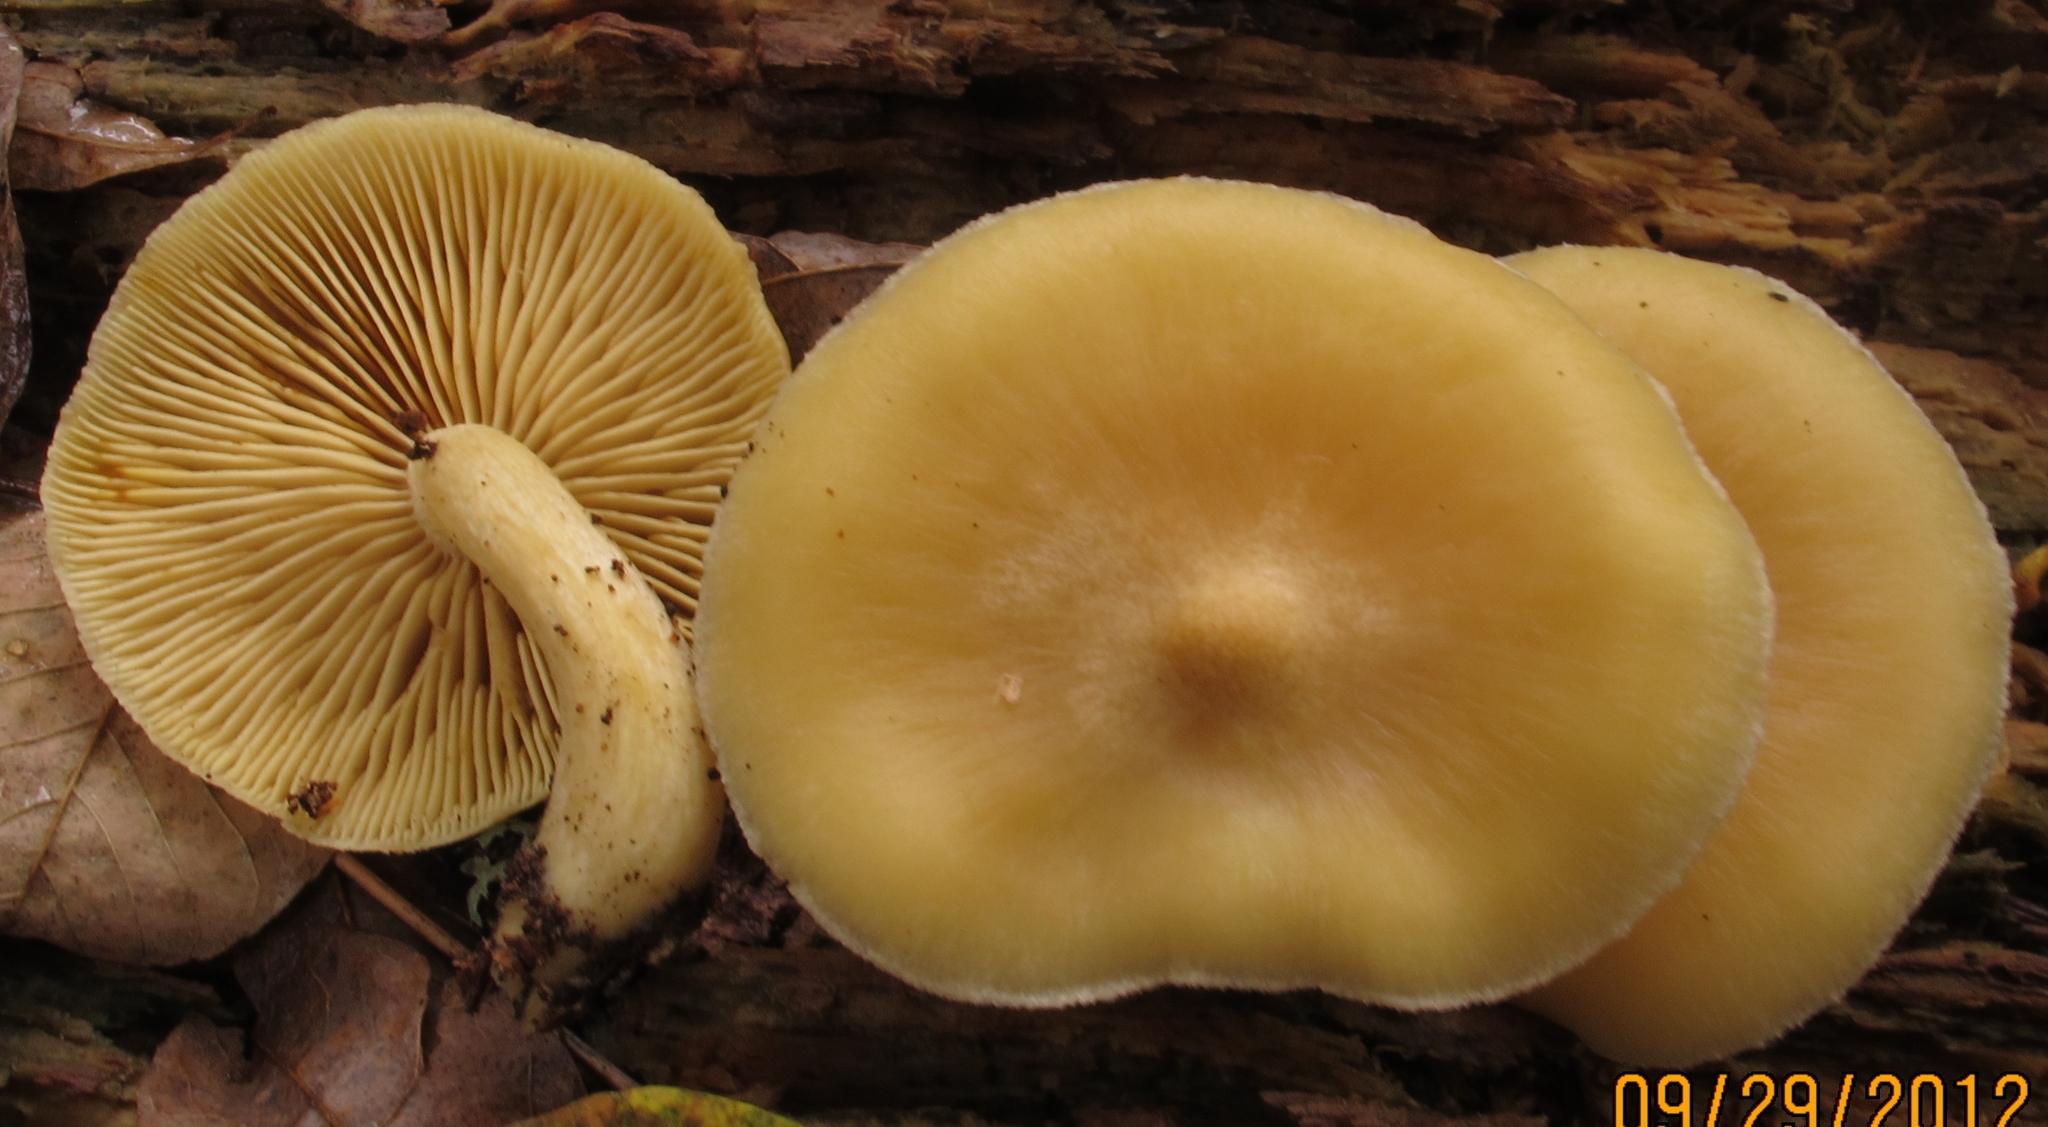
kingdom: Fungi
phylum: Basidiomycota
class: Agaricomycetes
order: Agaricales
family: Tricholomataceae
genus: Tricholomopsis
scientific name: Tricholomopsis sulfureoides
